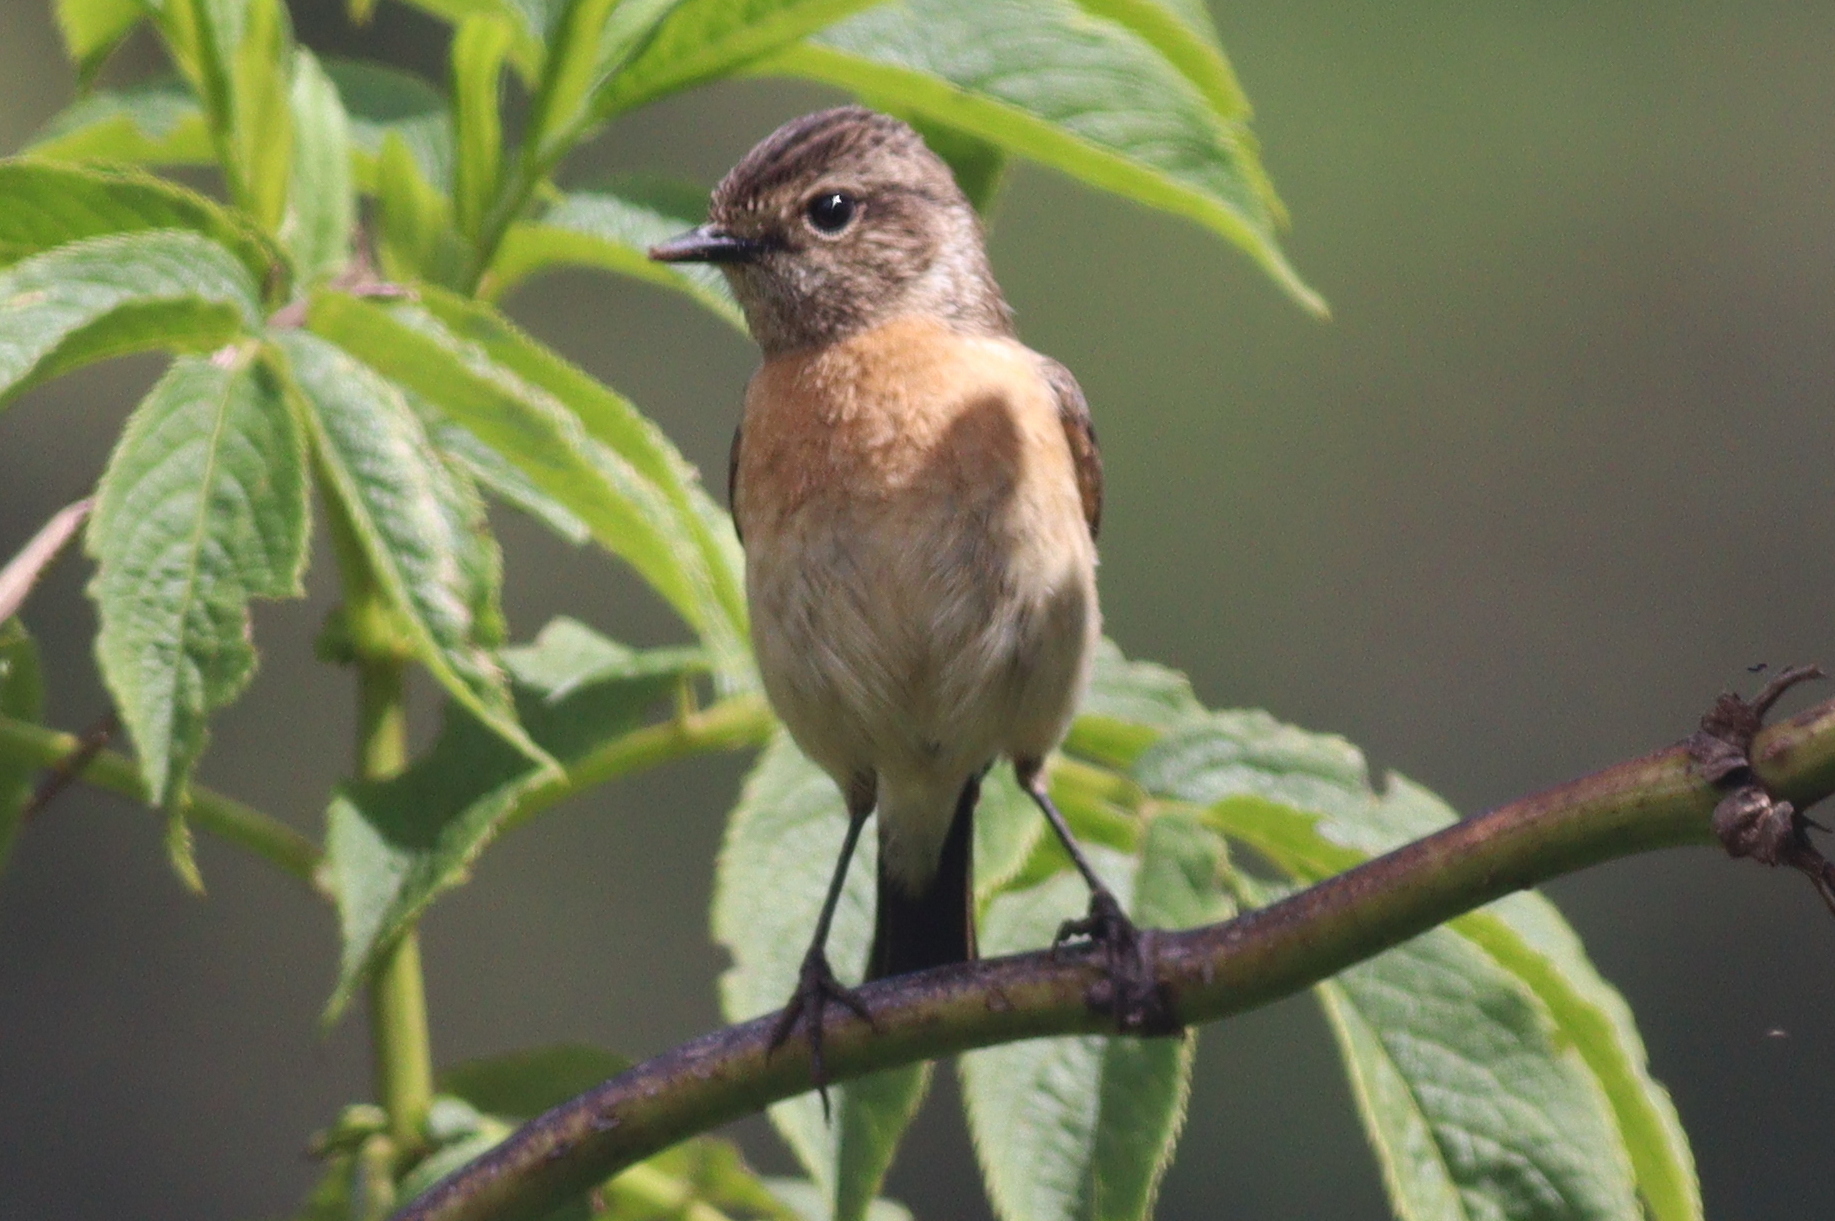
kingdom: Animalia
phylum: Chordata
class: Aves
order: Passeriformes
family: Muscicapidae
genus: Saxicola
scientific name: Saxicola torquatus
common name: African stonechat
